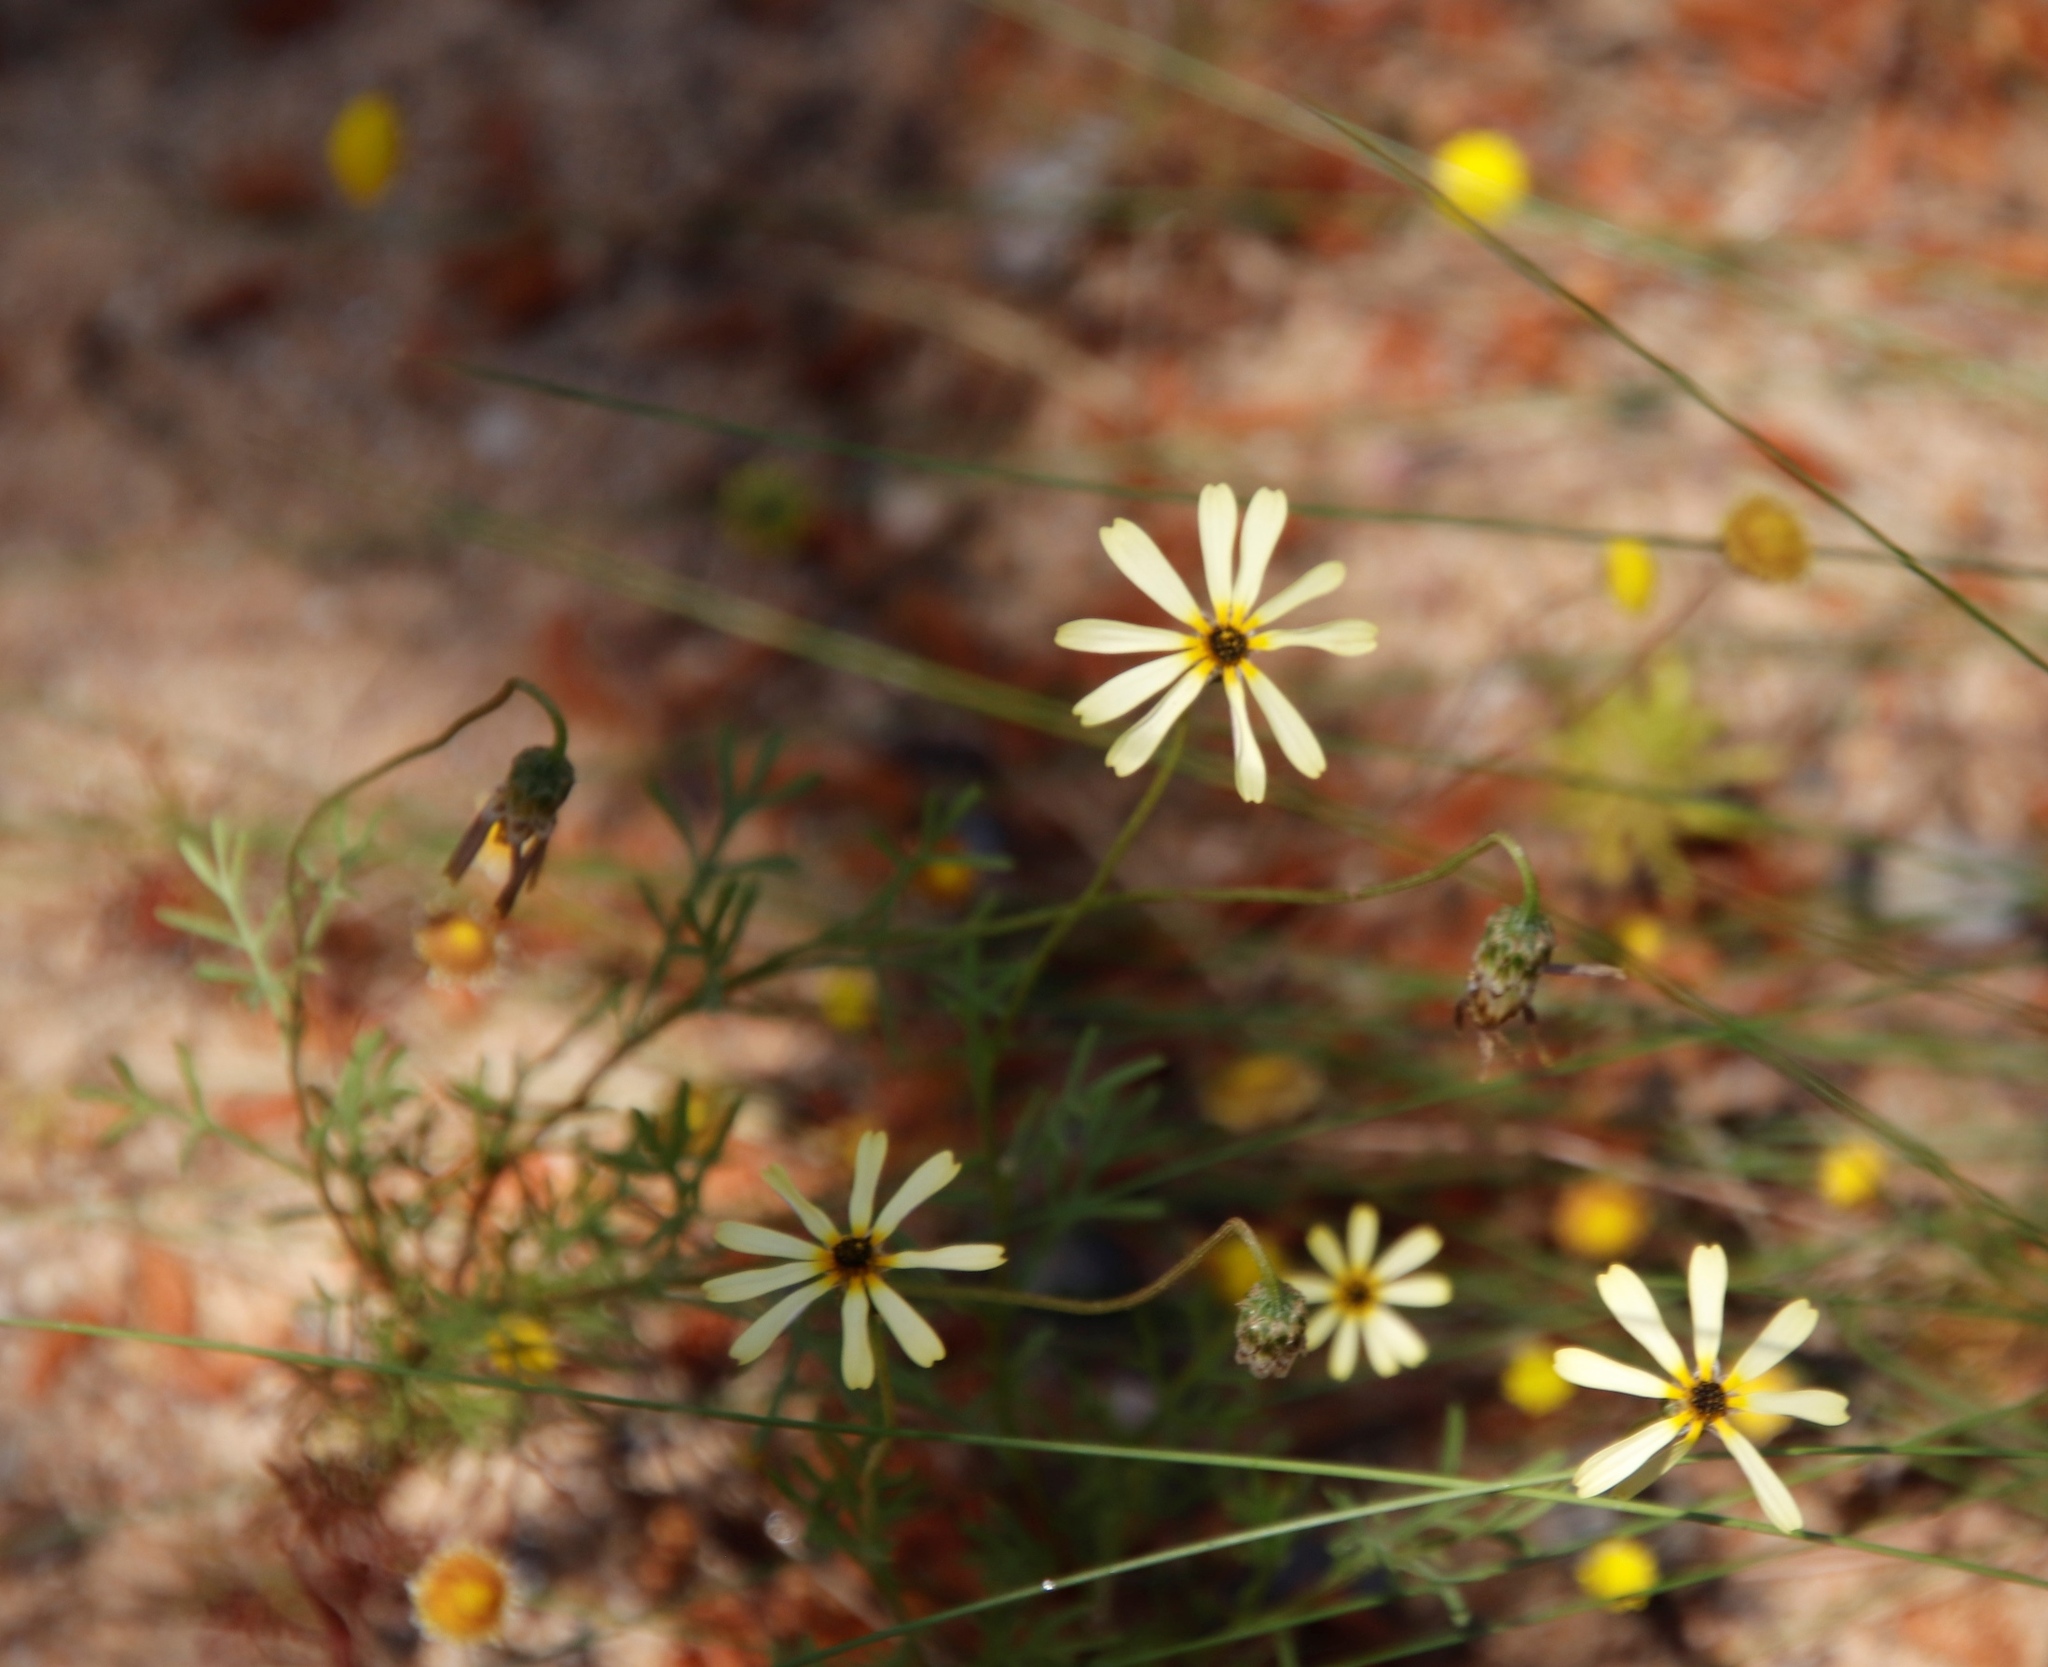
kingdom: Plantae
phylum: Tracheophyta
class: Magnoliopsida
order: Asterales
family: Asteraceae
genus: Ursinia
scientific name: Ursinia anthemoides
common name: Ursinia
